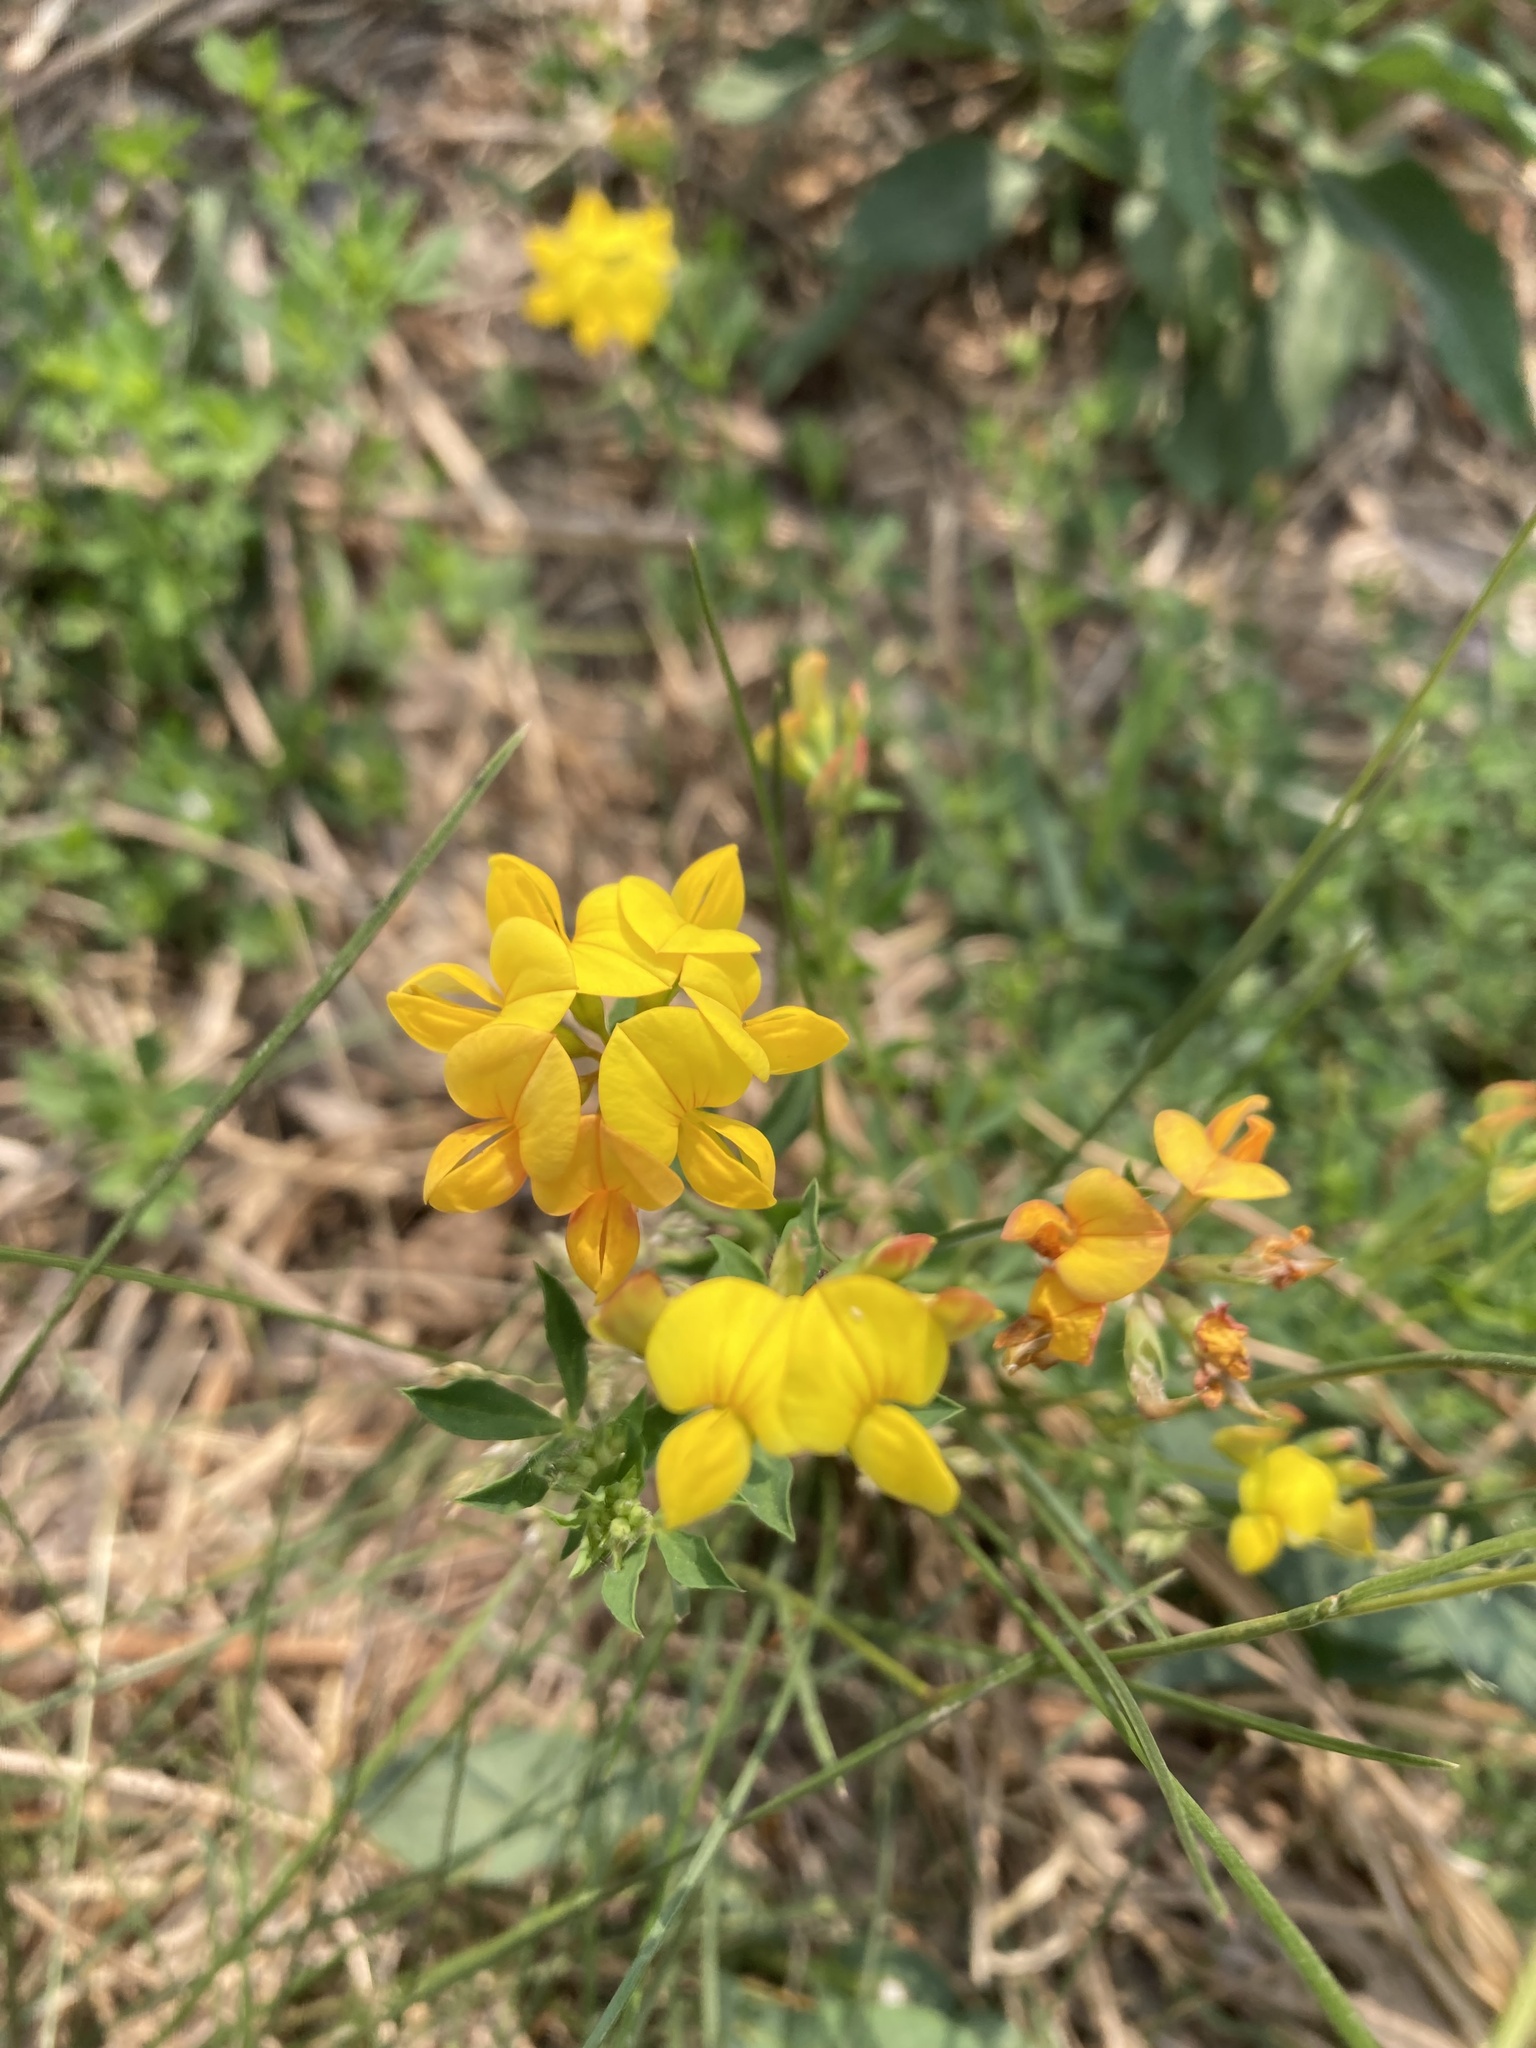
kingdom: Plantae
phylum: Tracheophyta
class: Magnoliopsida
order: Fabales
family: Fabaceae
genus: Lotus
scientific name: Lotus corniculatus
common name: Common bird's-foot-trefoil
